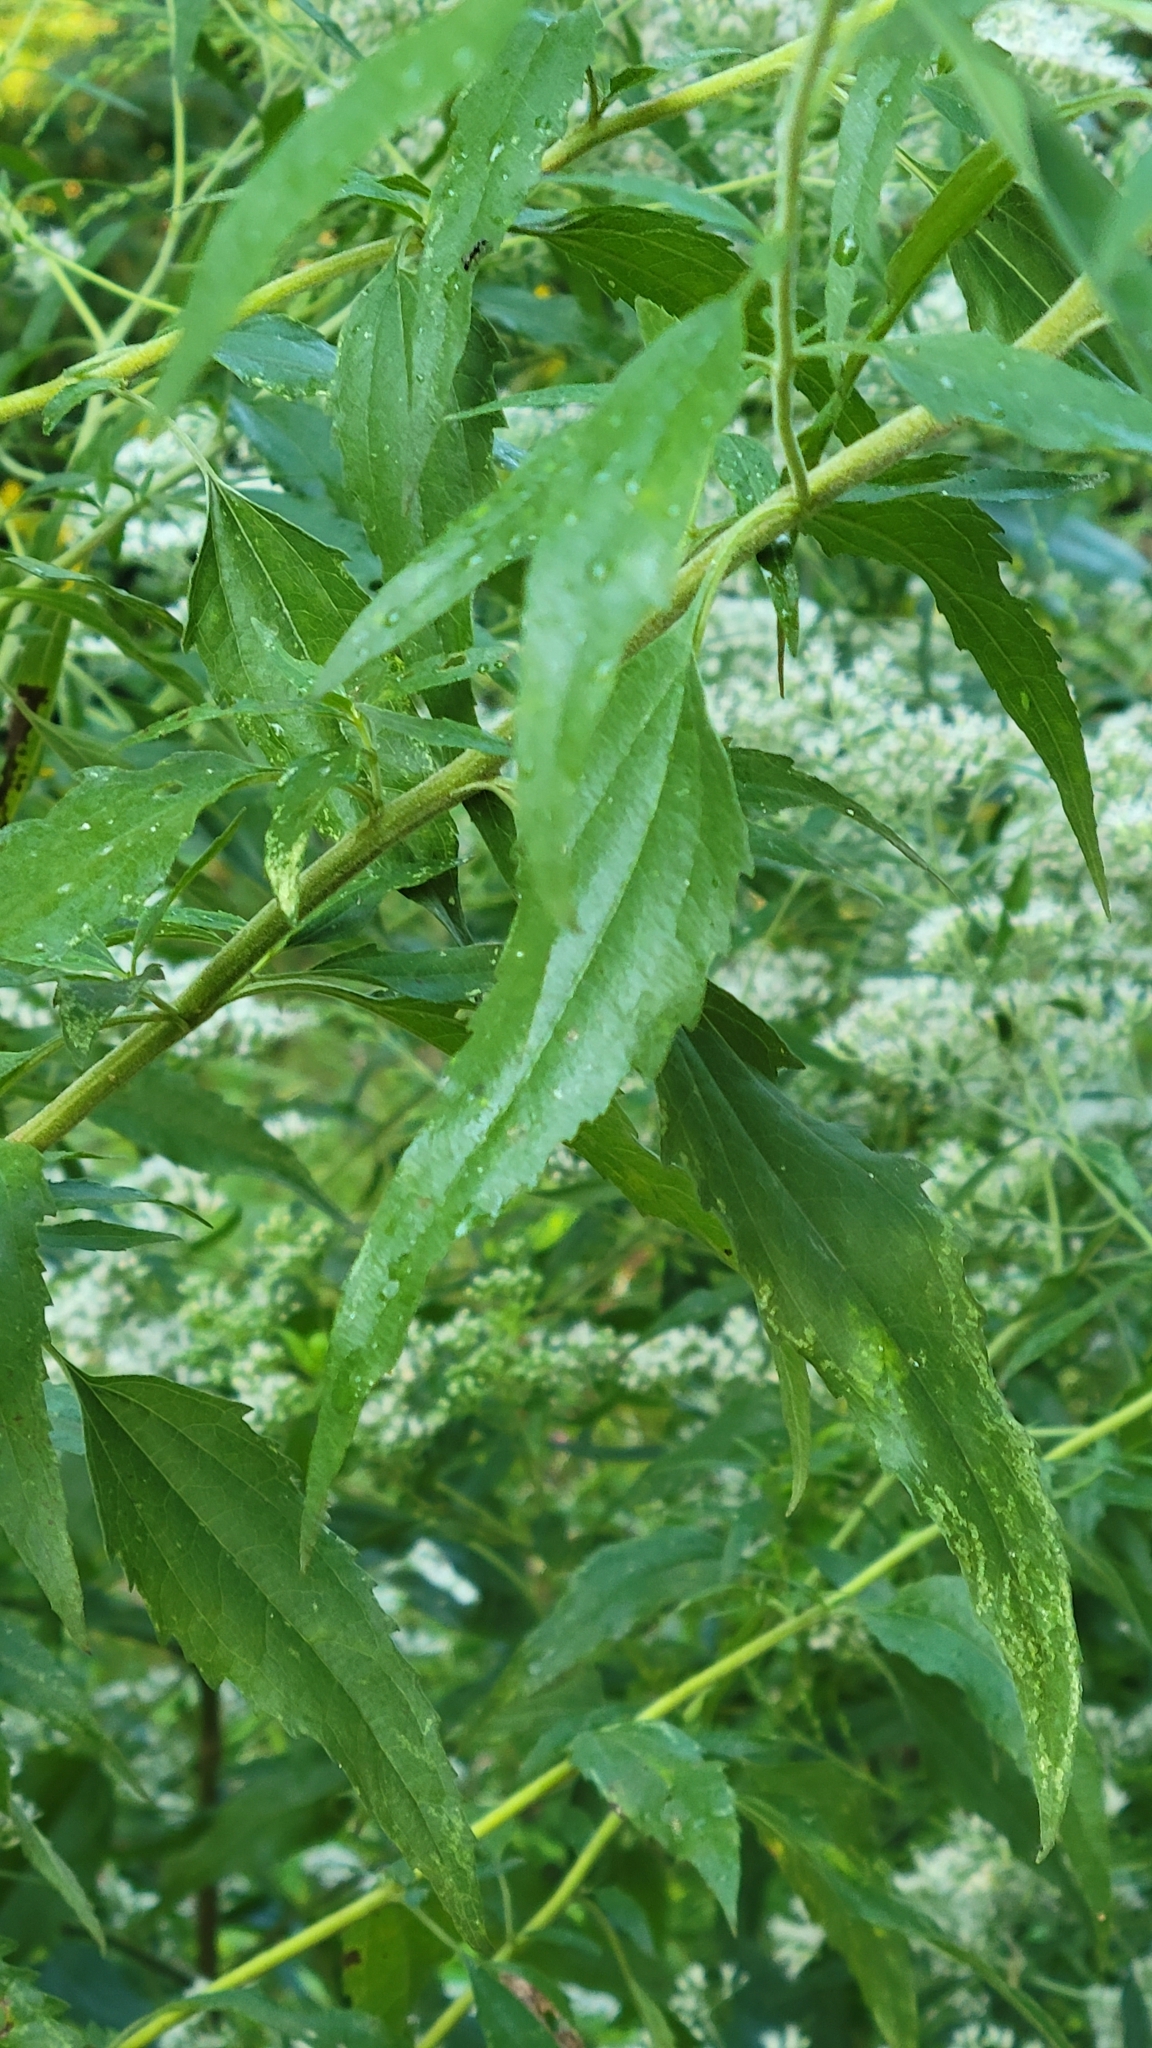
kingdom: Plantae
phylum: Tracheophyta
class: Magnoliopsida
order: Asterales
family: Asteraceae
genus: Eupatorium
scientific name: Eupatorium serotinum
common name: Late boneset
